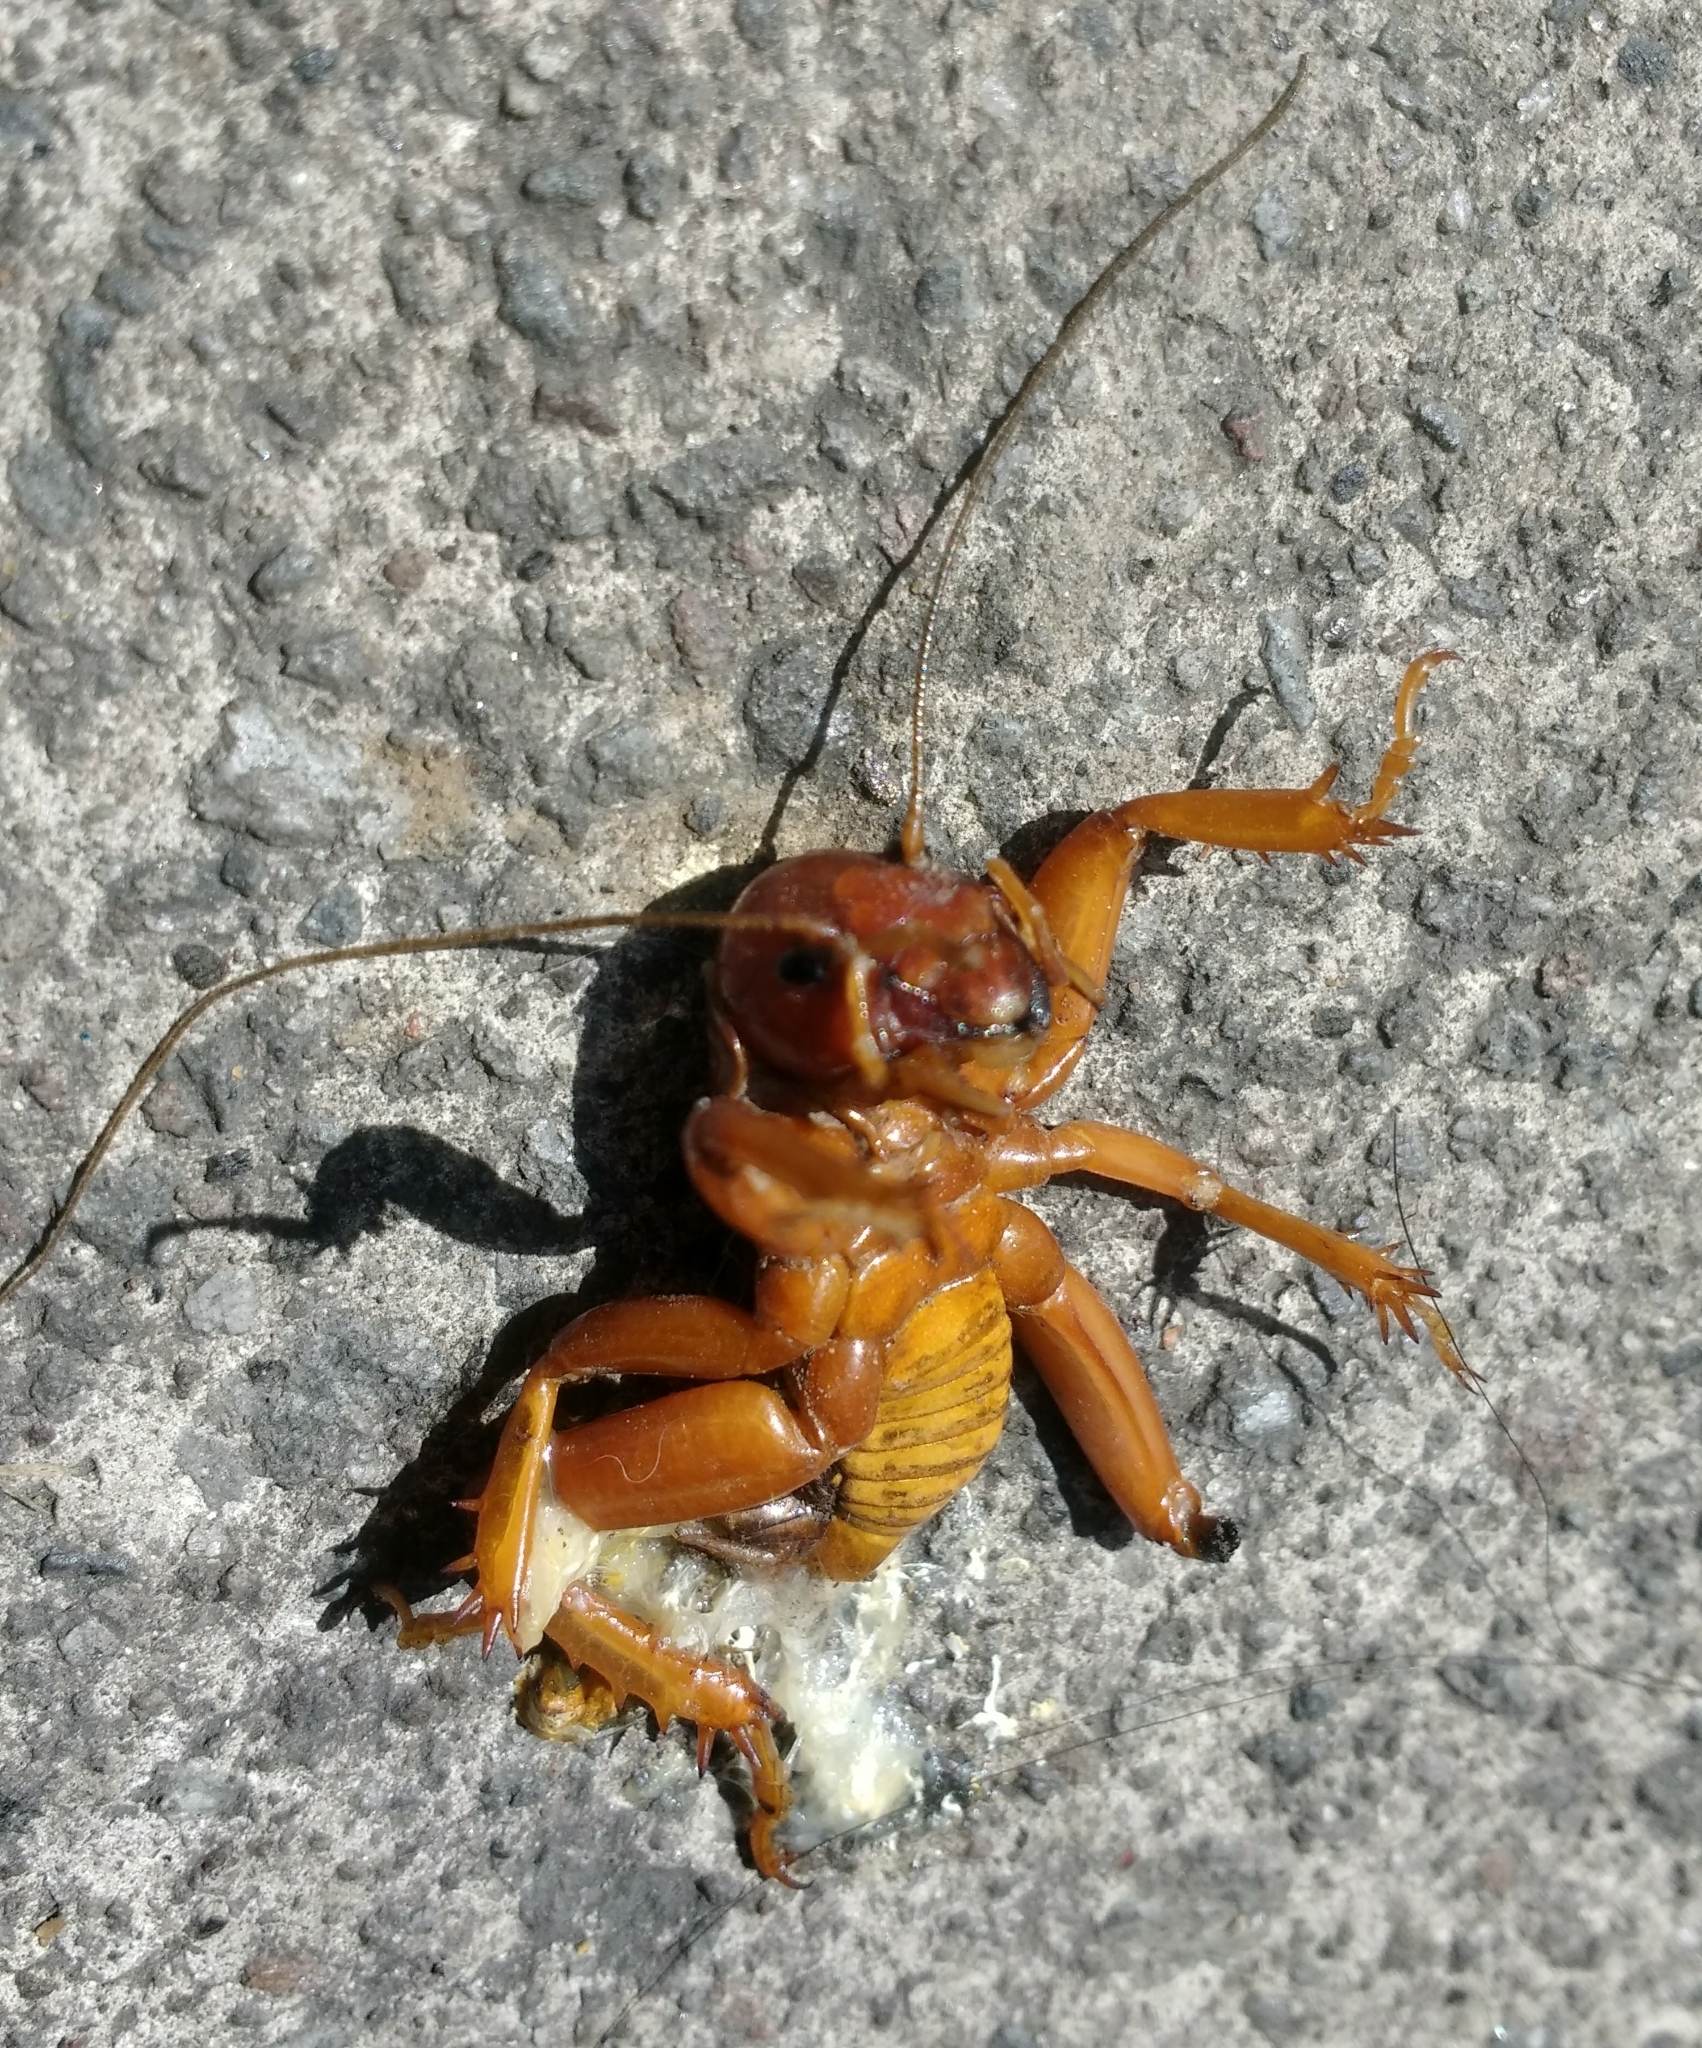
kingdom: Animalia
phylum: Arthropoda
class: Insecta
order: Orthoptera
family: Stenopelmatidae
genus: Stenopelmatus
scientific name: Stenopelmatus talpa
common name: Mole jerusalem cricket
